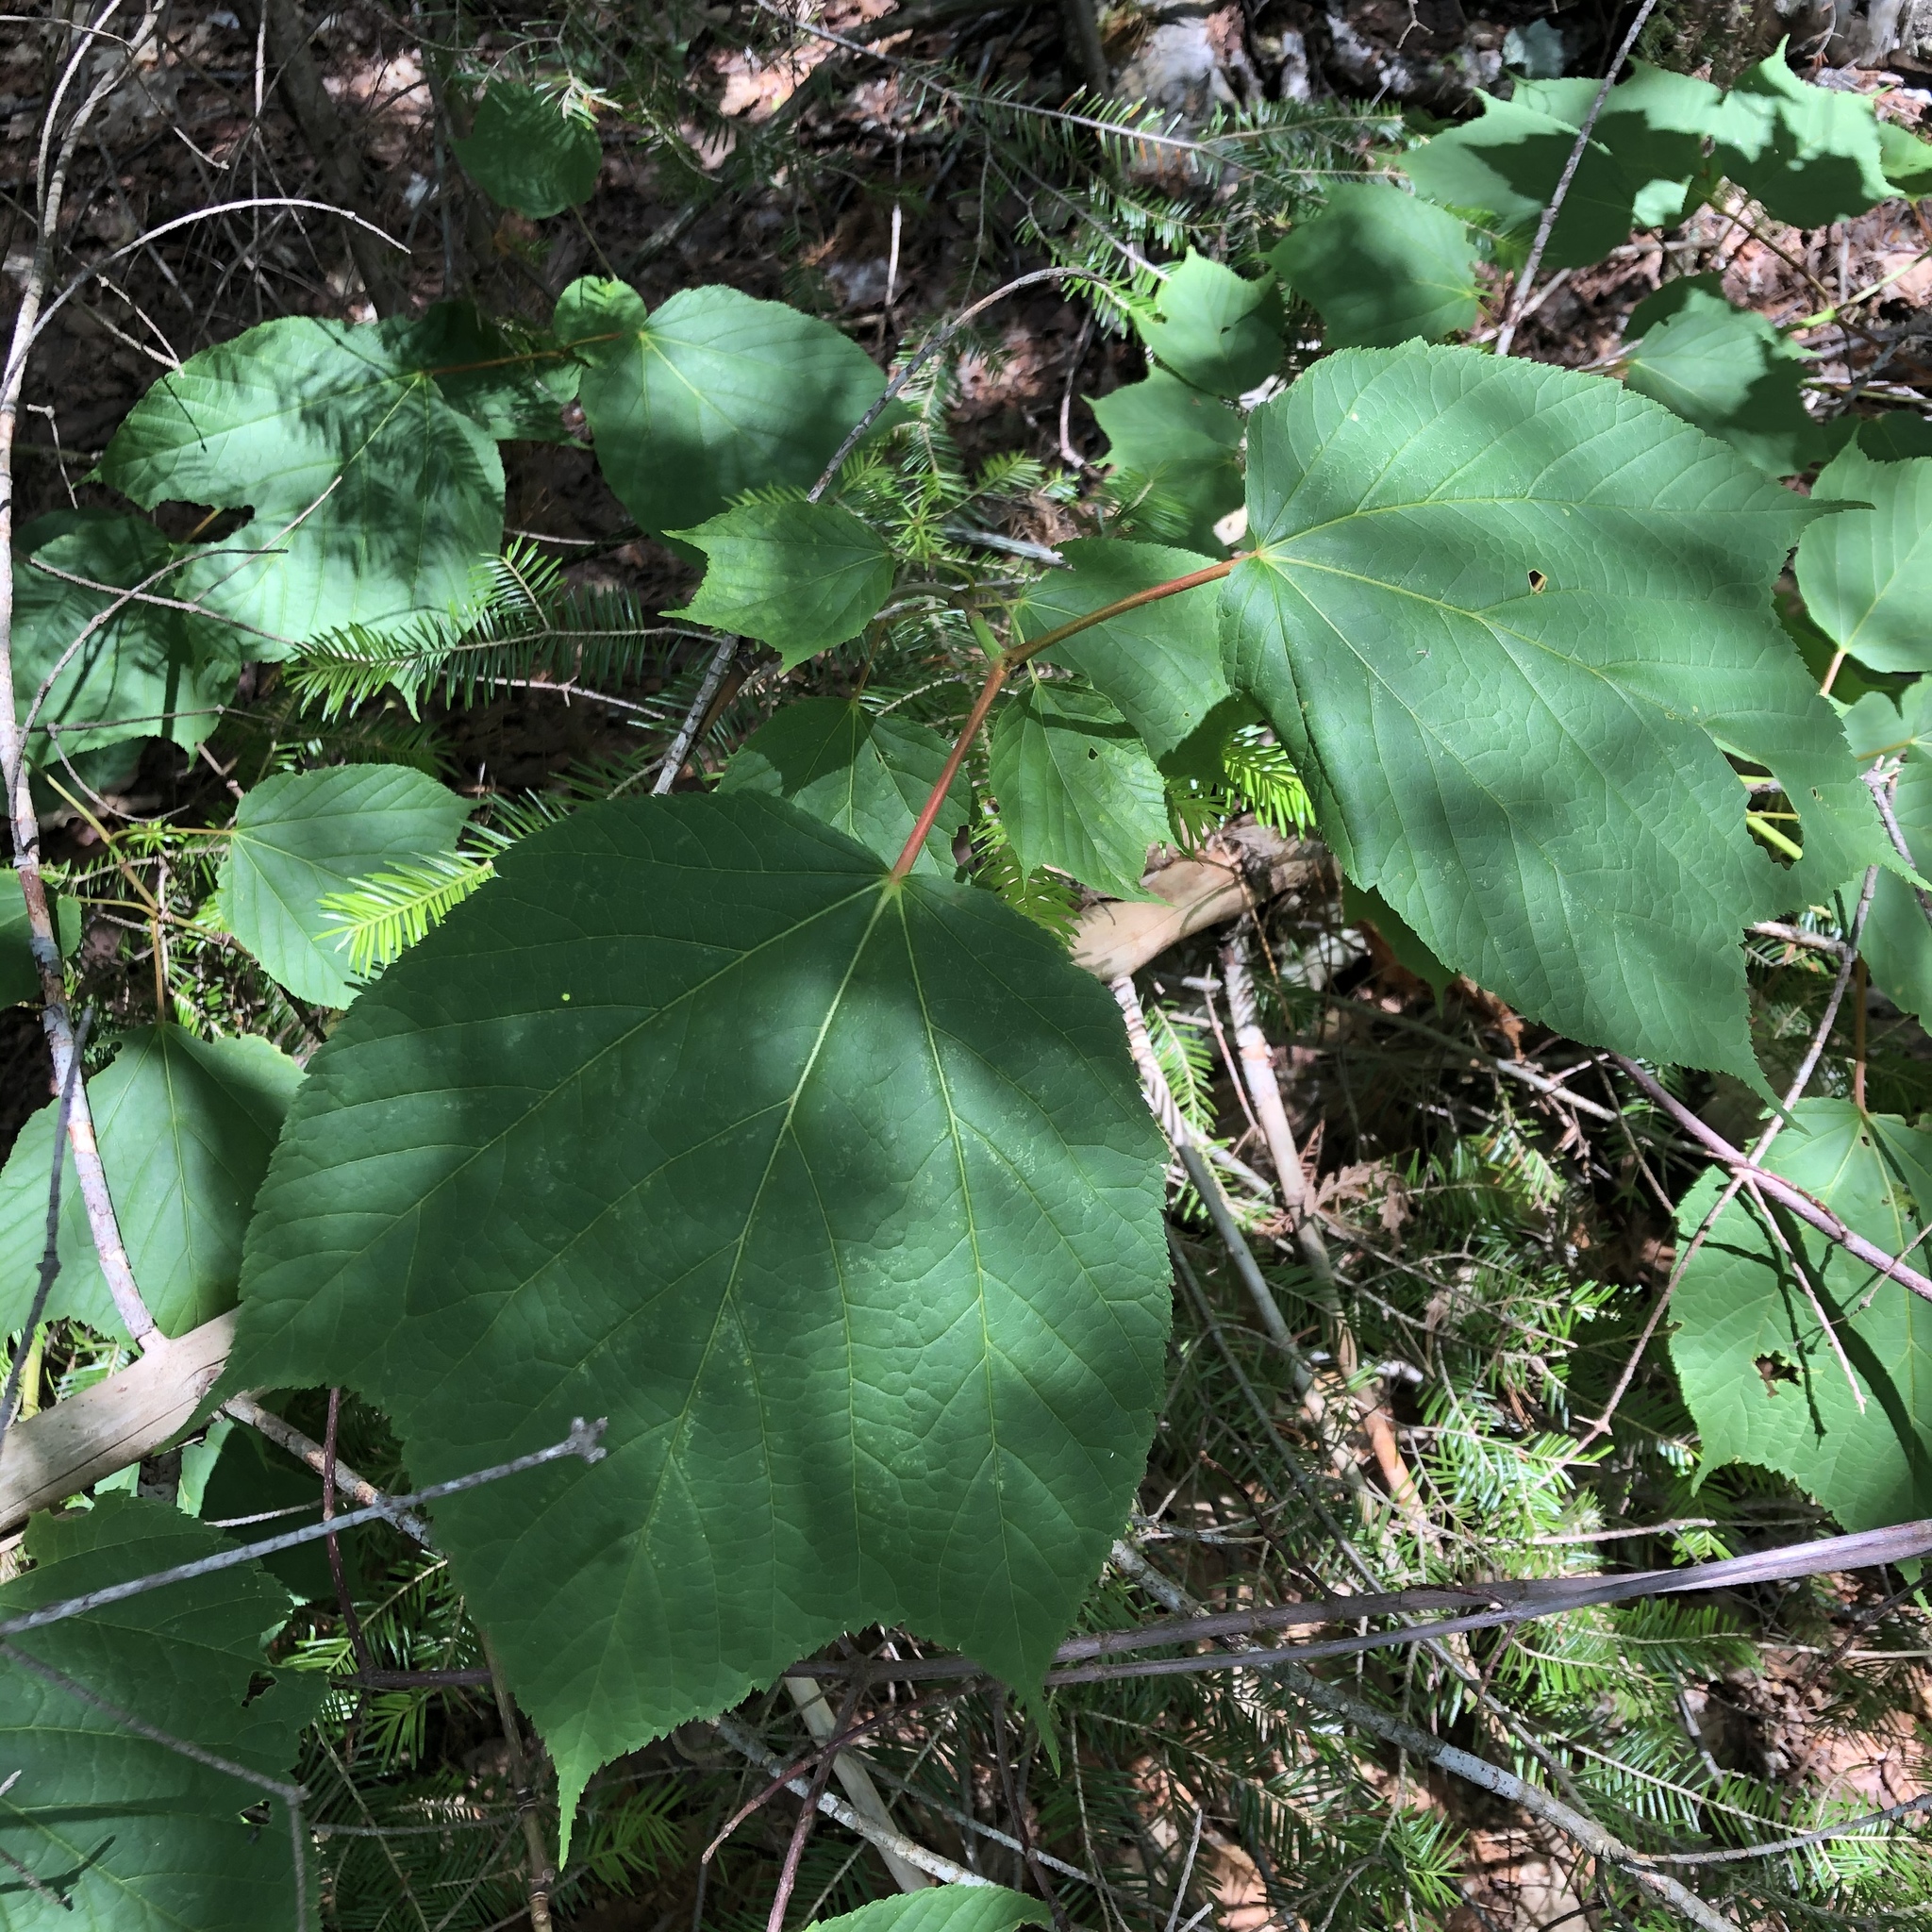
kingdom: Plantae
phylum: Tracheophyta
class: Magnoliopsida
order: Sapindales
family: Sapindaceae
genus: Acer
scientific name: Acer pensylvanicum
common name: Moosewood
